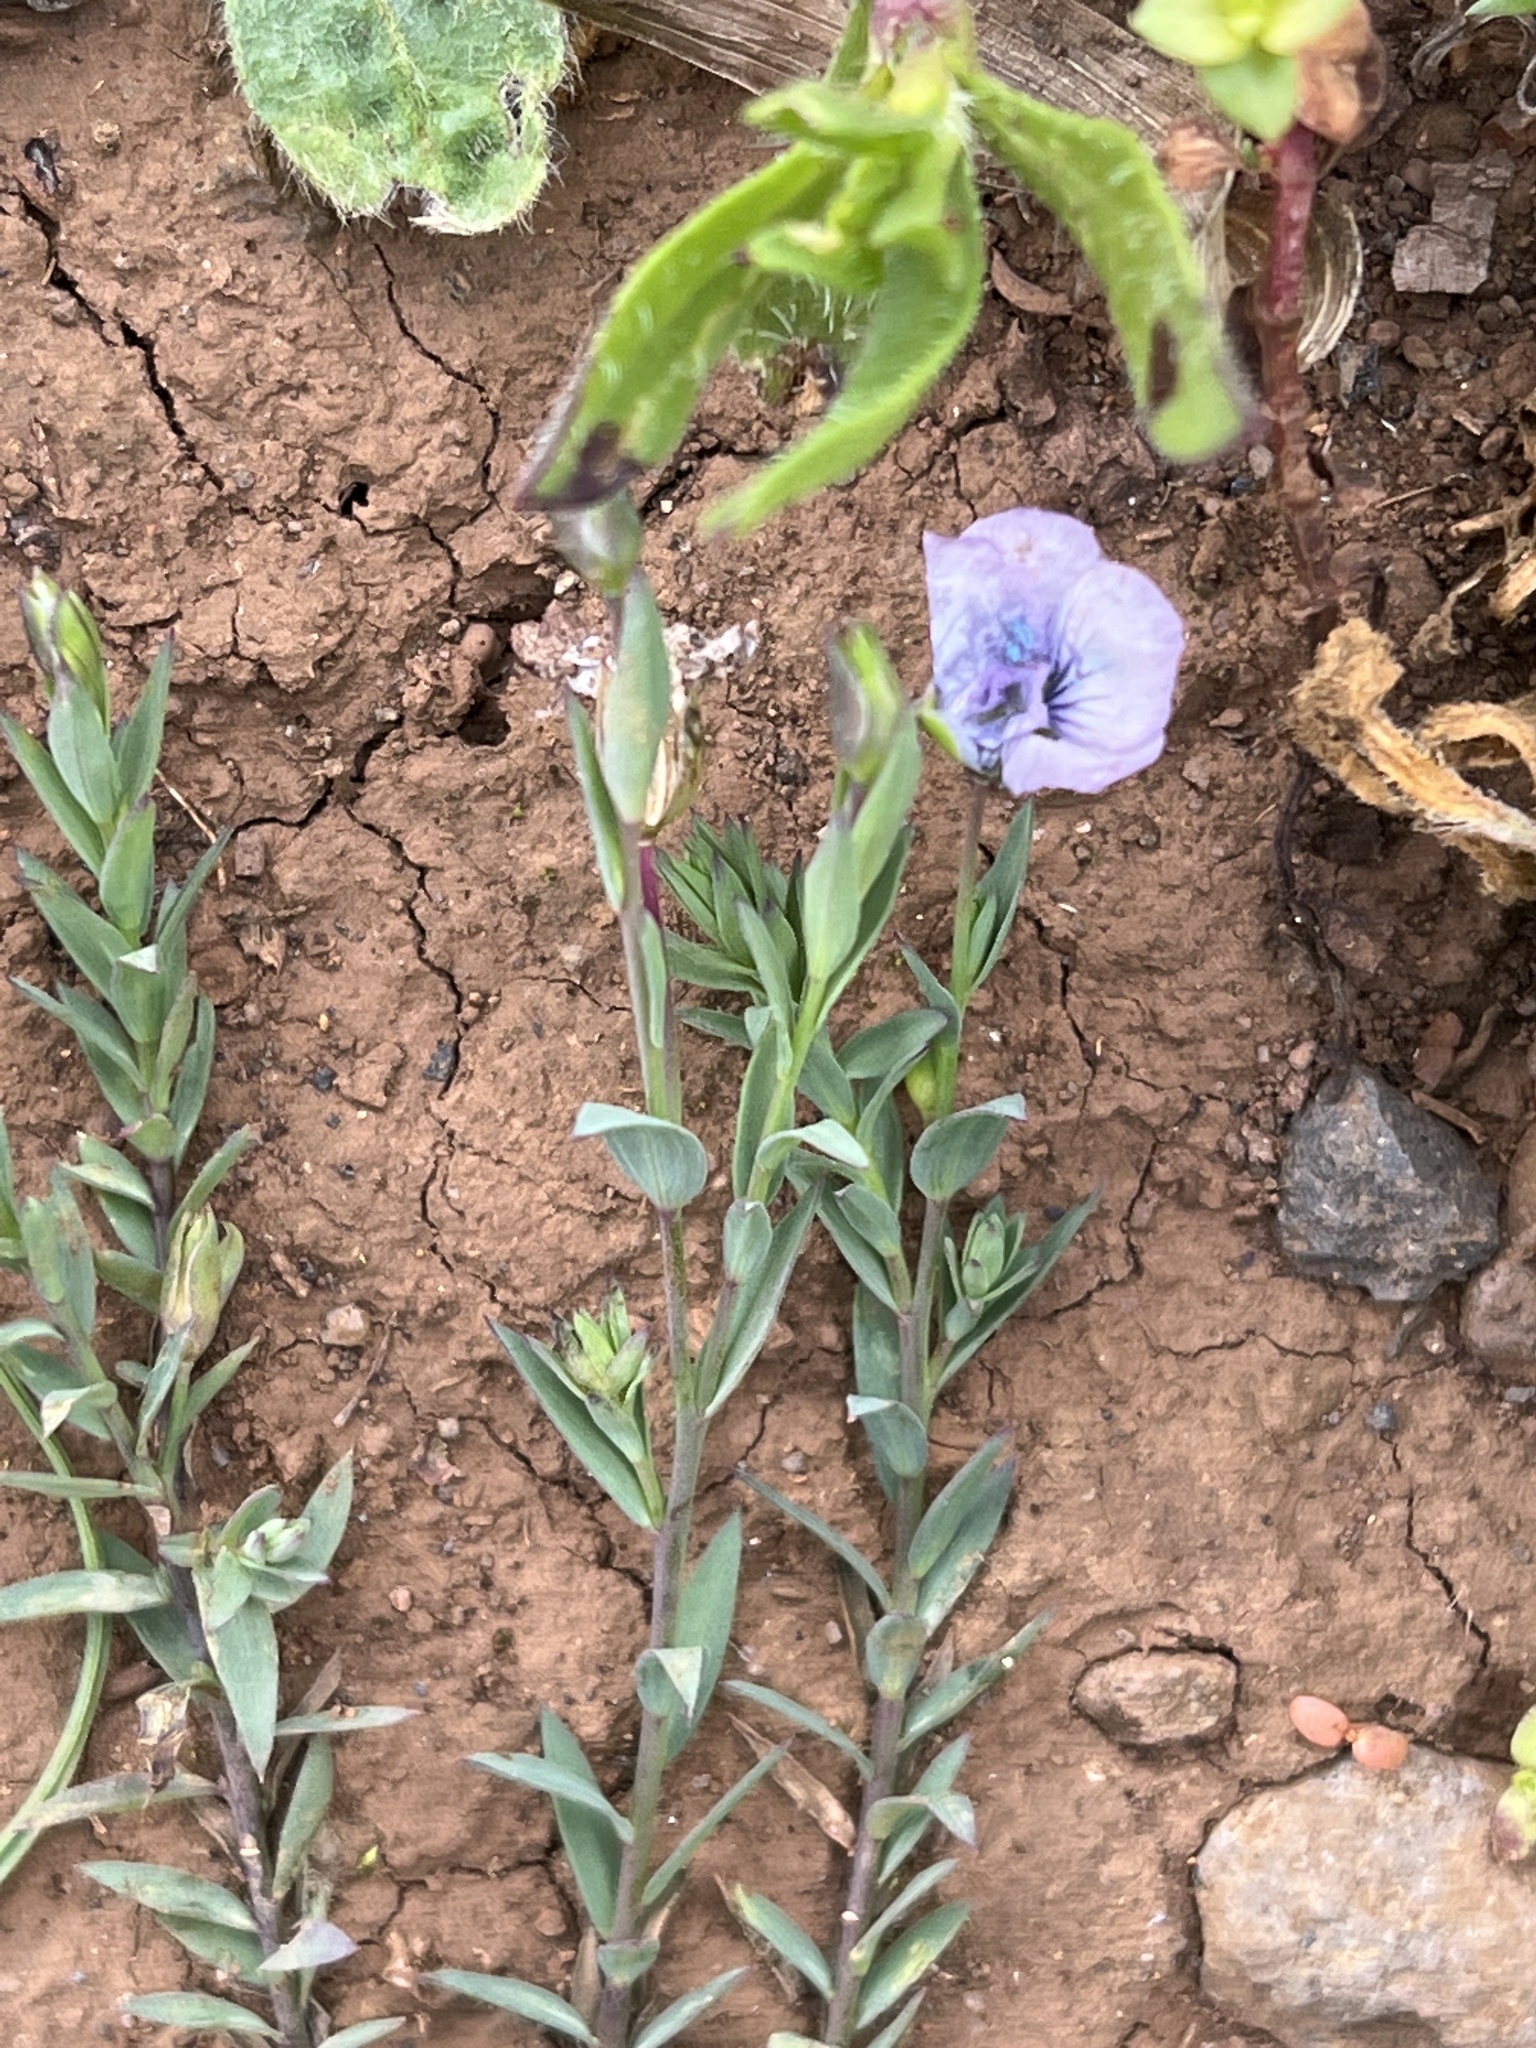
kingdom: Plantae
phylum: Tracheophyta
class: Magnoliopsida
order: Malpighiales
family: Linaceae
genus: Linum
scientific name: Linum bienne
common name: Pale flax
